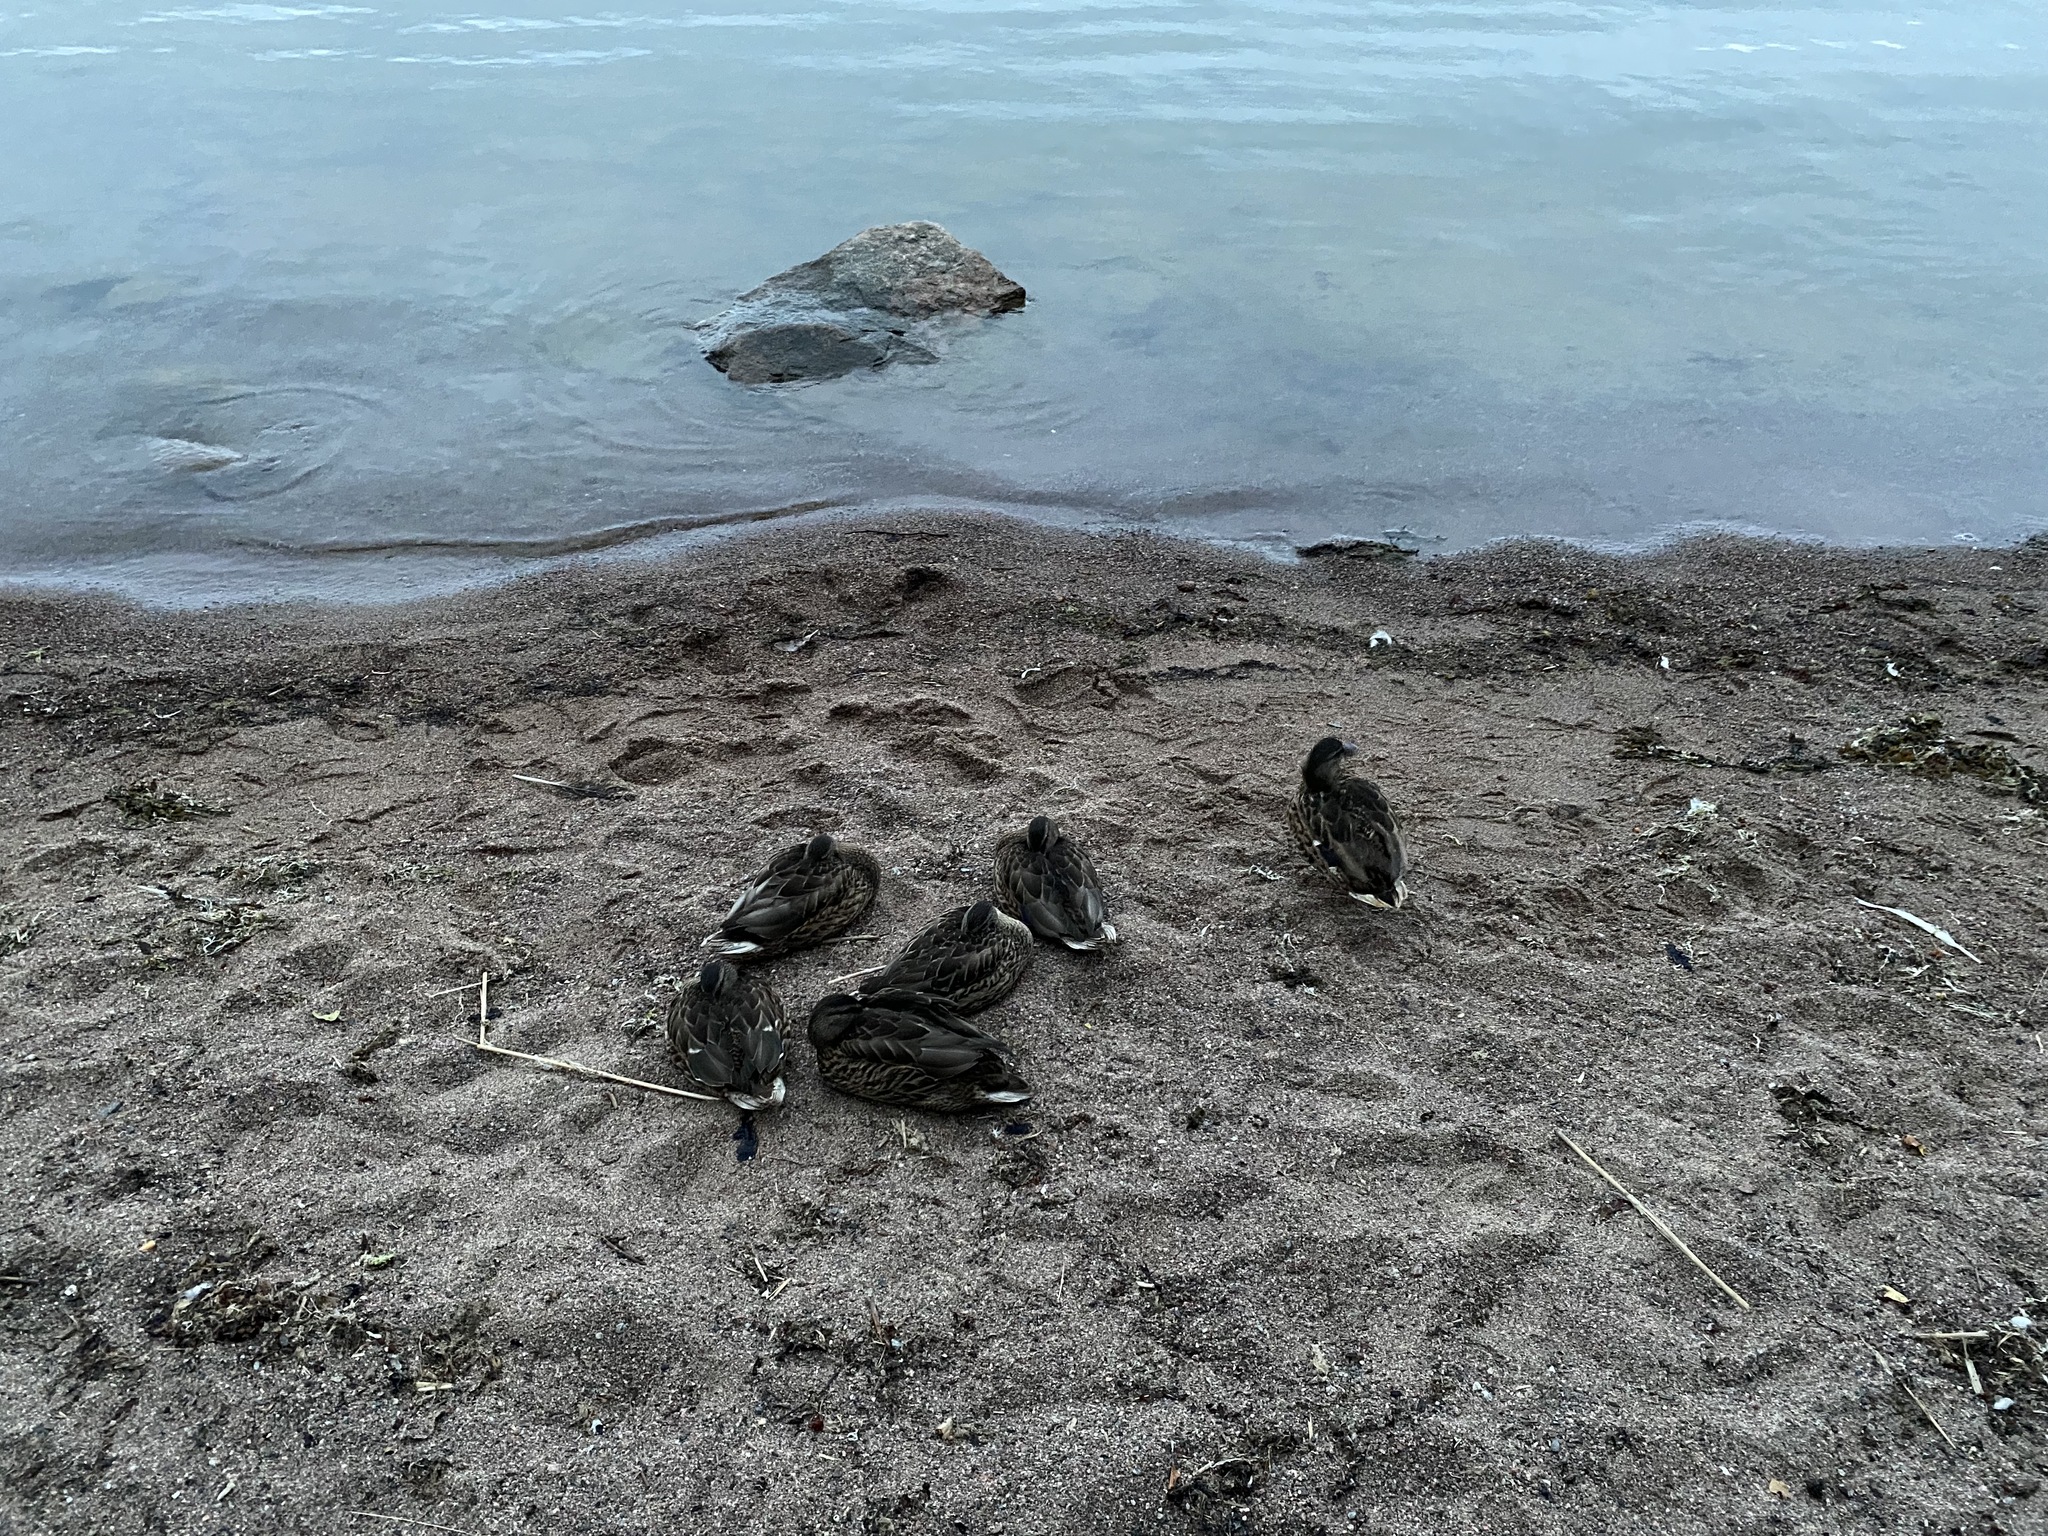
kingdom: Animalia
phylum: Chordata
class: Aves
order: Anseriformes
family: Anatidae
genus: Anas
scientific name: Anas platyrhynchos
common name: Mallard
